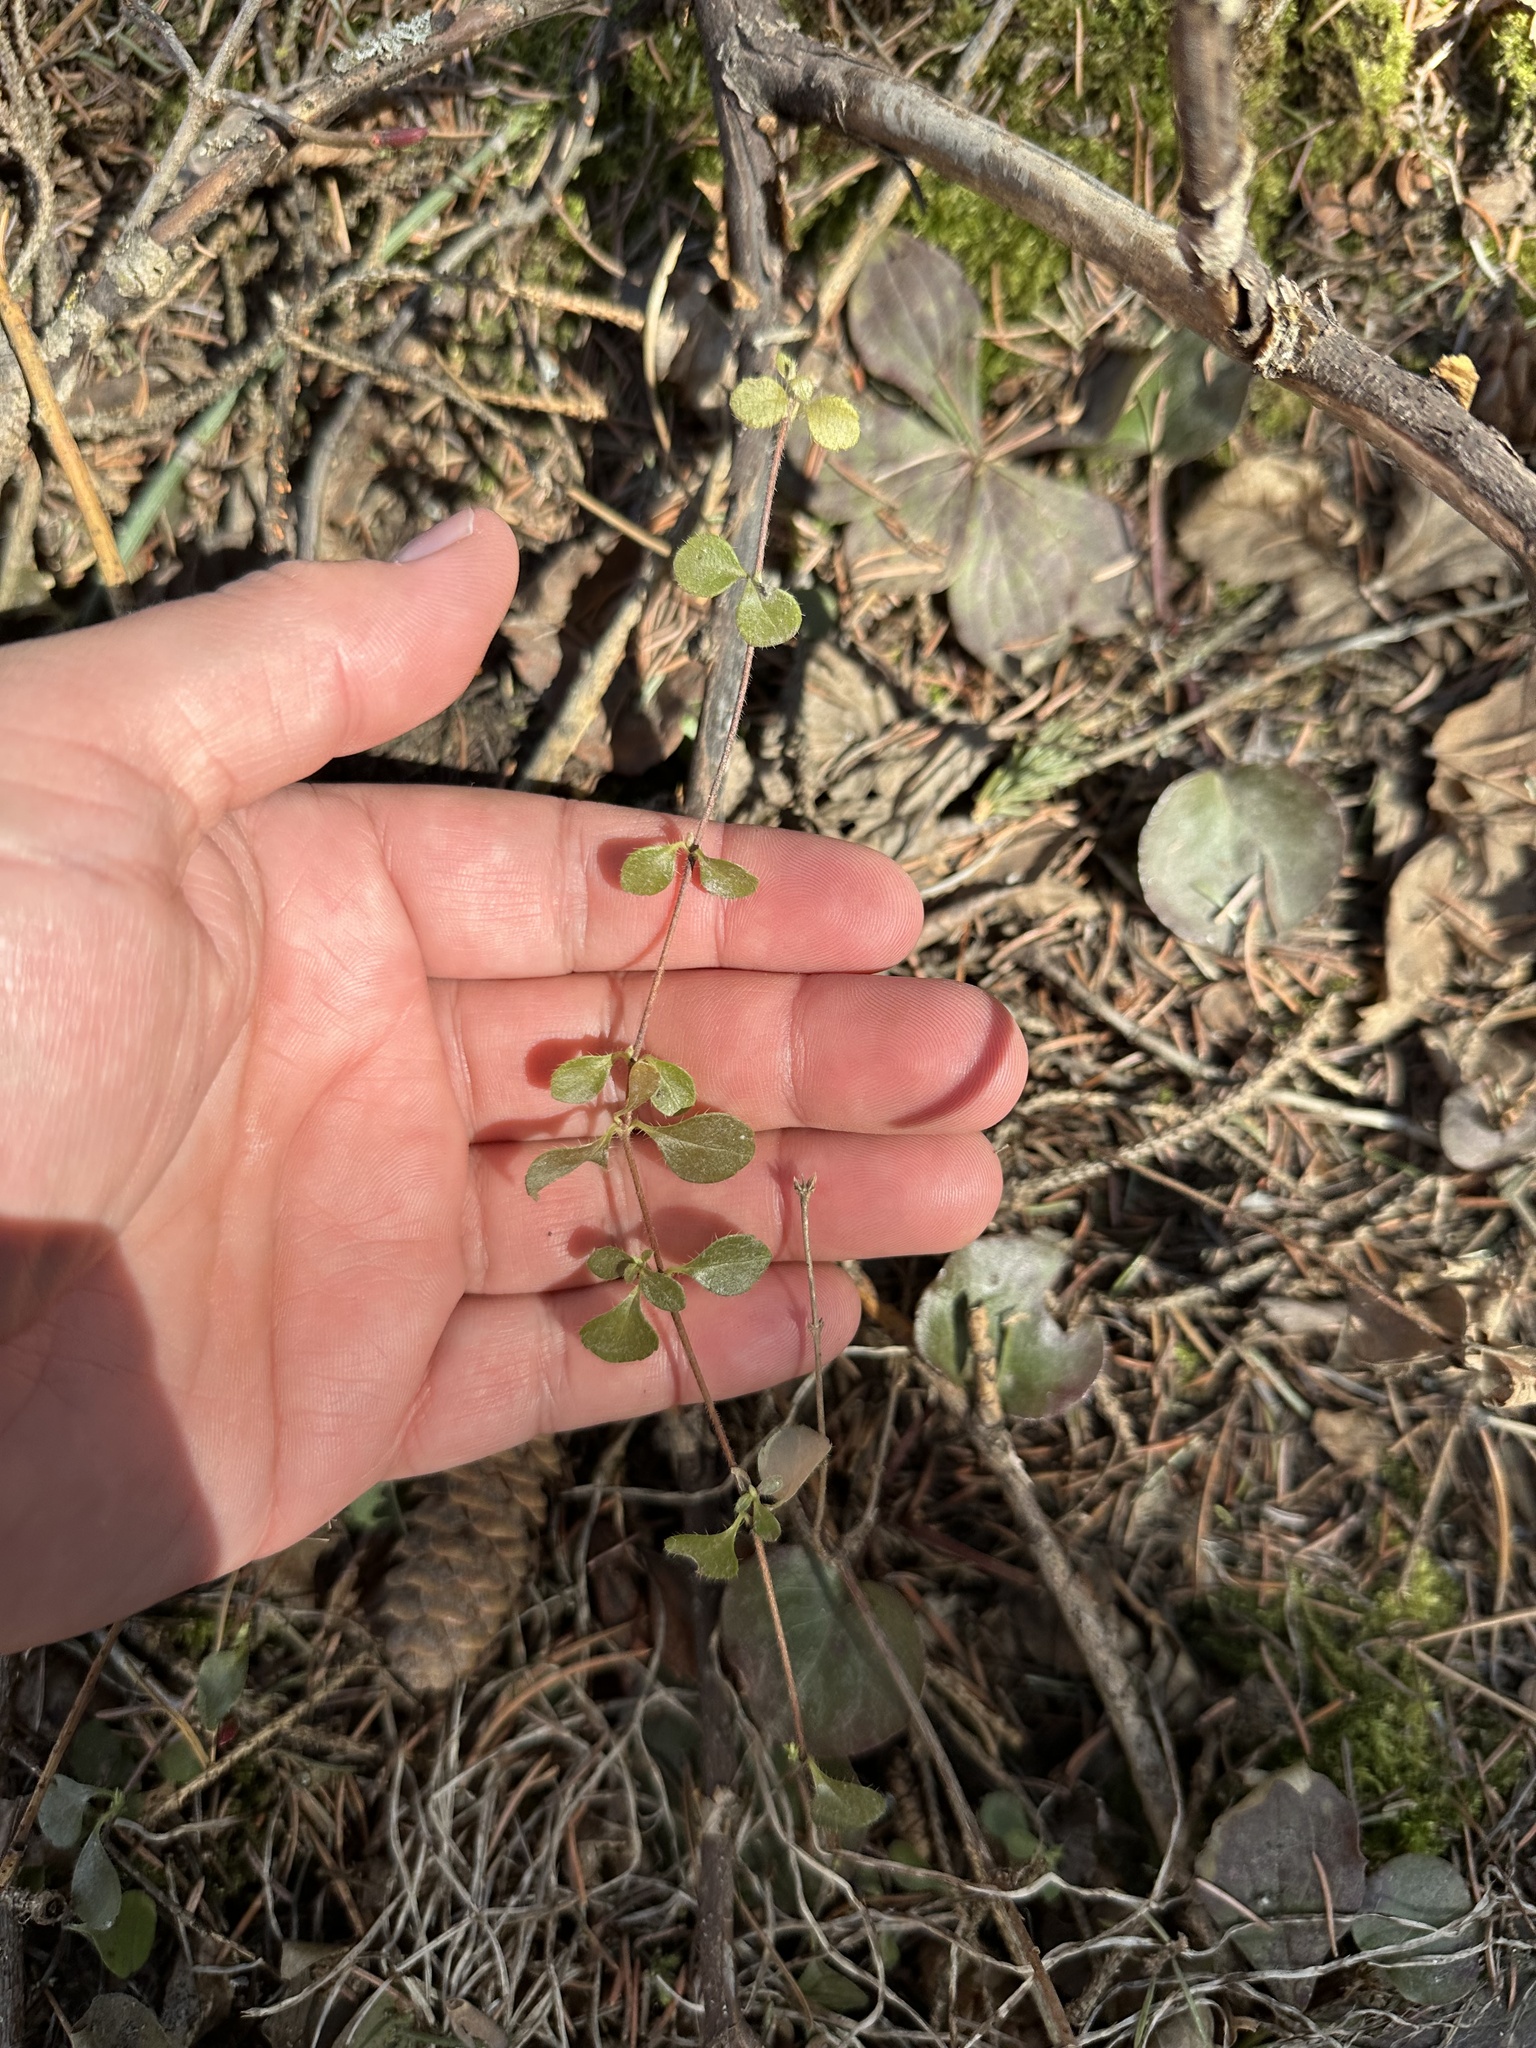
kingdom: Plantae
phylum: Tracheophyta
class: Magnoliopsida
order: Dipsacales
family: Caprifoliaceae
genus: Linnaea
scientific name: Linnaea borealis
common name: Twinflower
